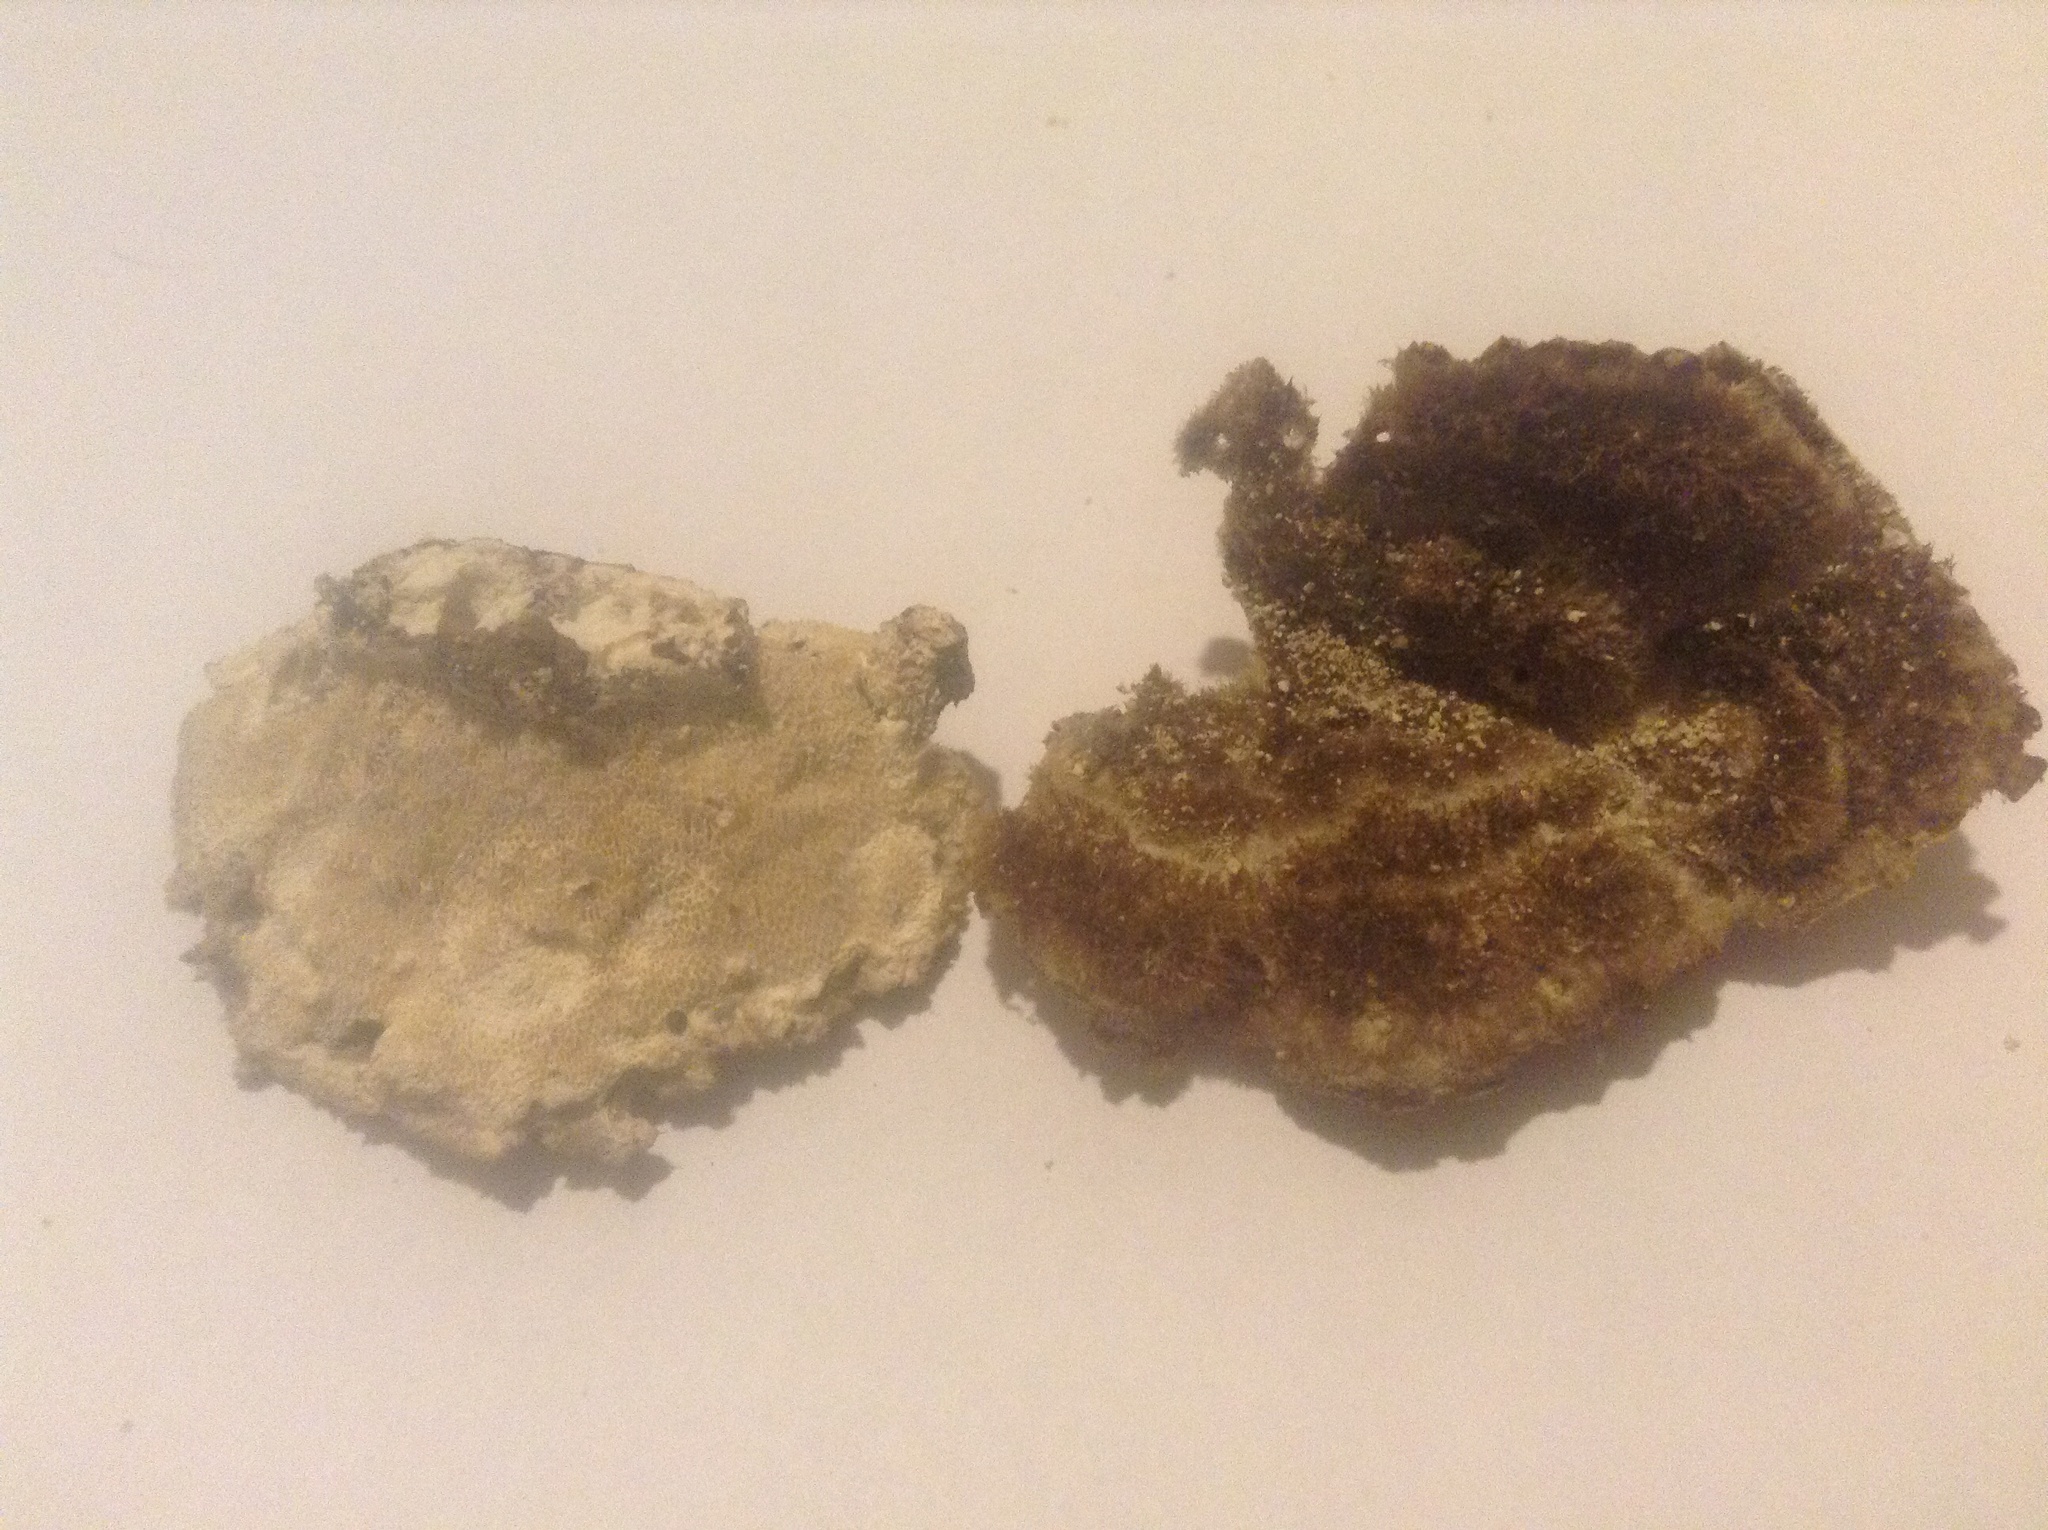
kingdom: Fungi
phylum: Basidiomycota
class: Agaricomycetes
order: Polyporales
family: Polyporaceae
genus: Trametes
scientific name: Trametes hirsuta
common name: Hairy bracket
